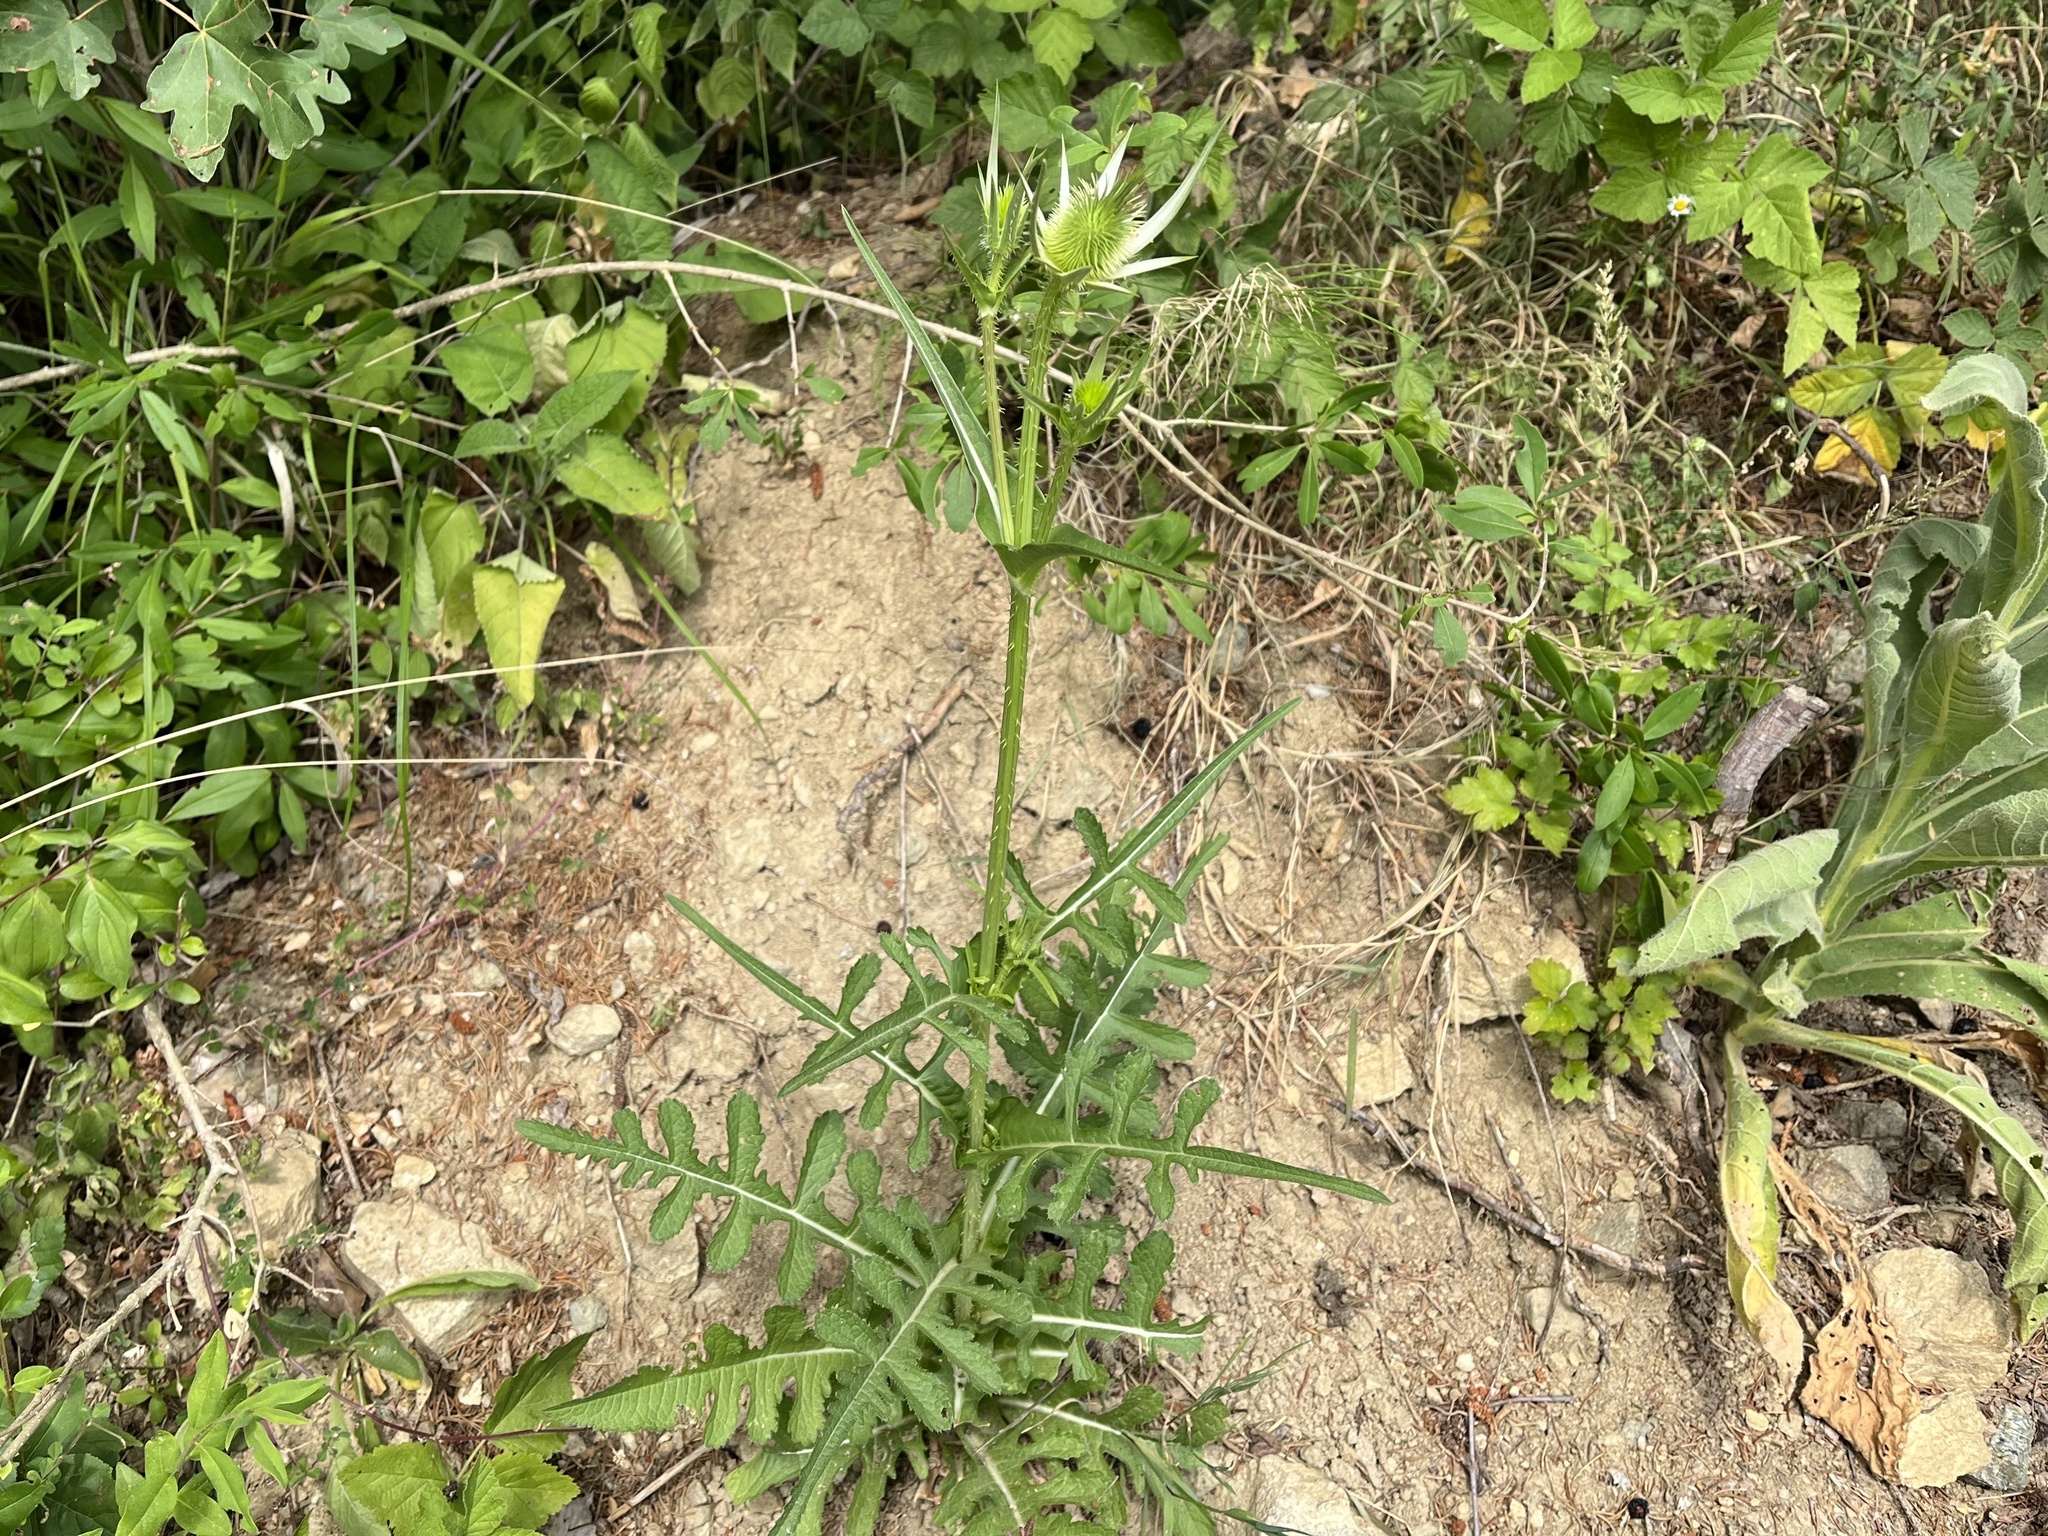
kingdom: Plantae
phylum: Tracheophyta
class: Magnoliopsida
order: Dipsacales
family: Caprifoliaceae
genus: Dipsacus
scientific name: Dipsacus laciniatus
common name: Cut-leaved teasel
